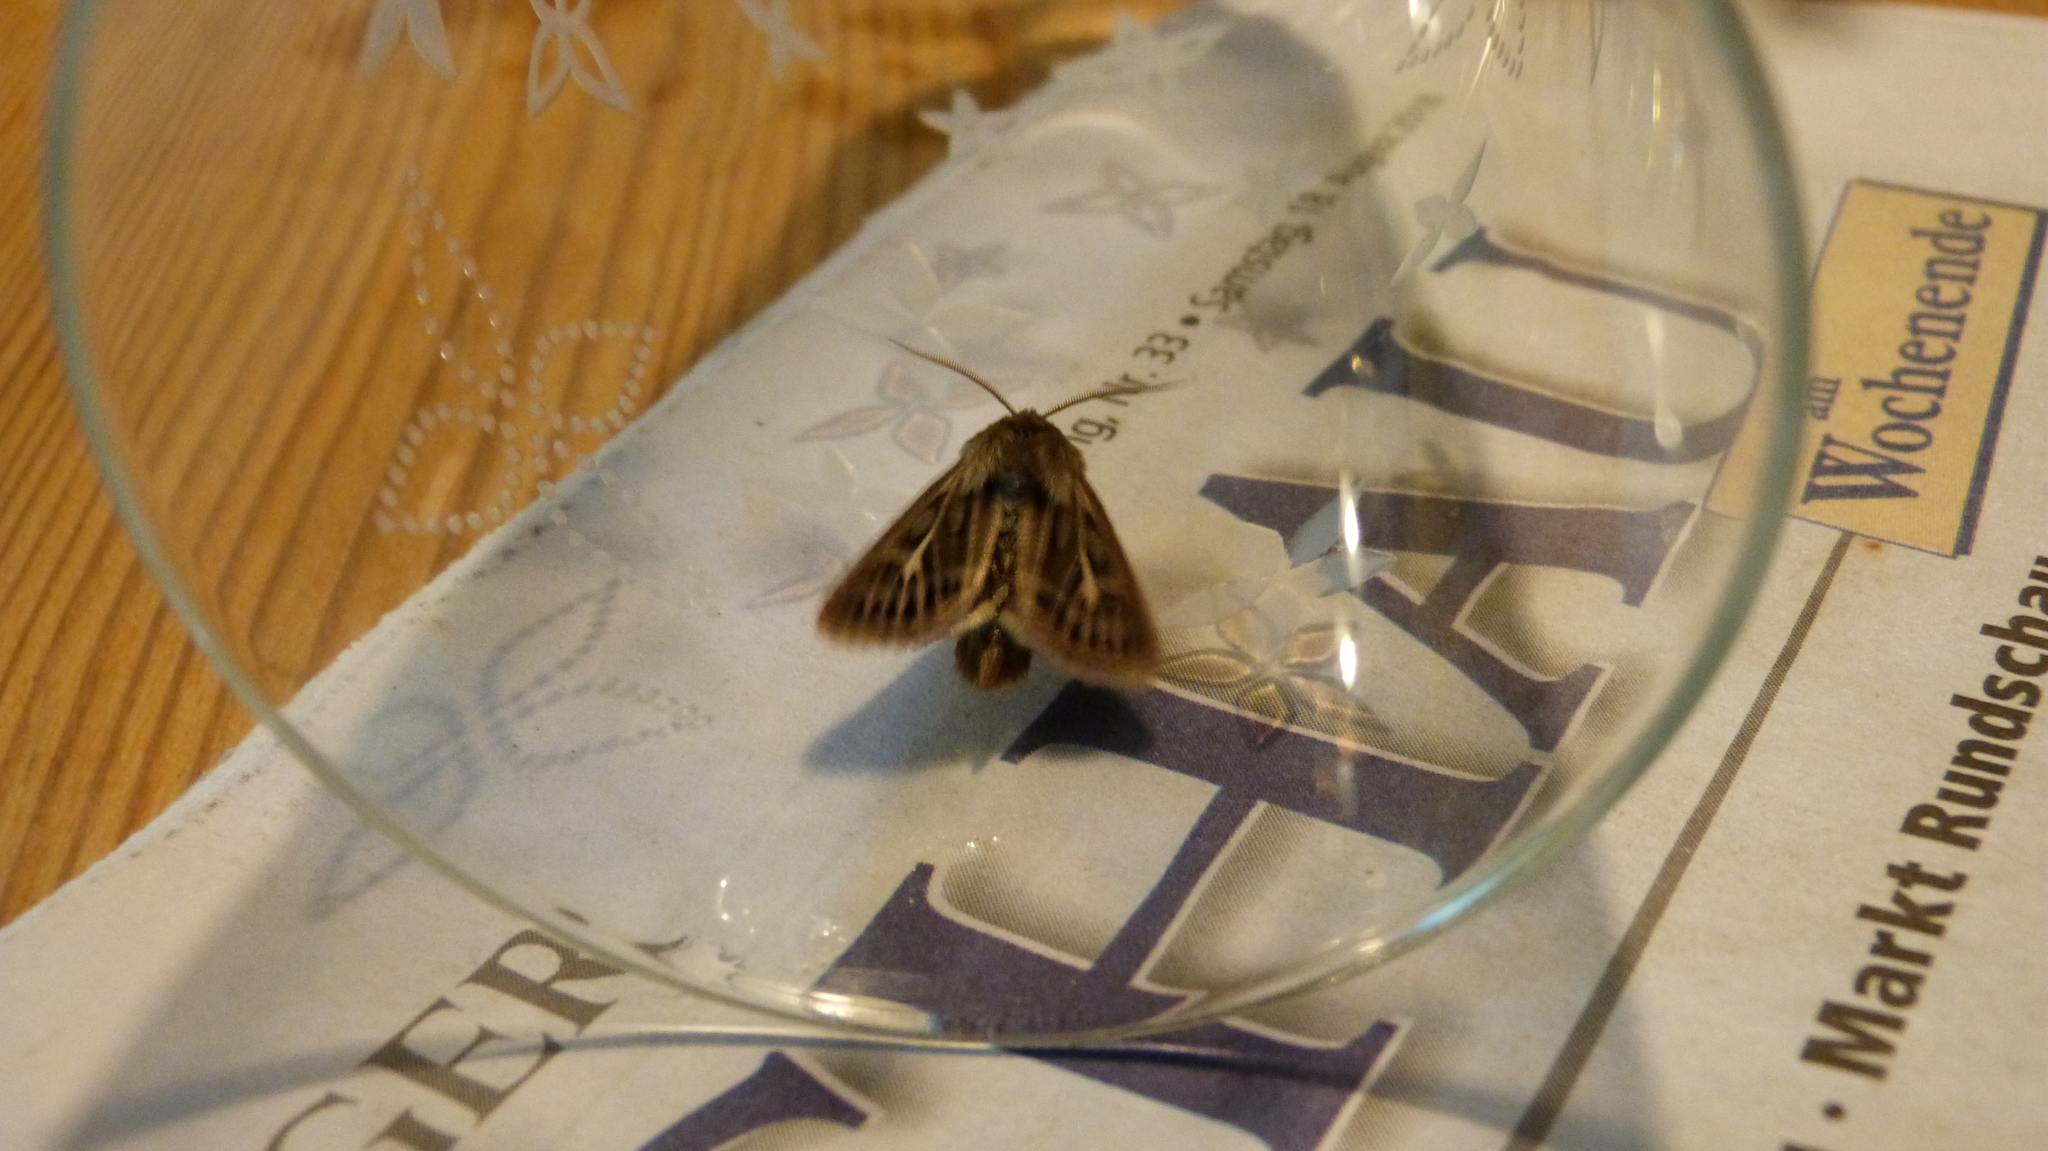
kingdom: Animalia
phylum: Arthropoda
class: Insecta
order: Lepidoptera
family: Noctuidae
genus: Cerapteryx
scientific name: Cerapteryx graminis
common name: Antler moth
